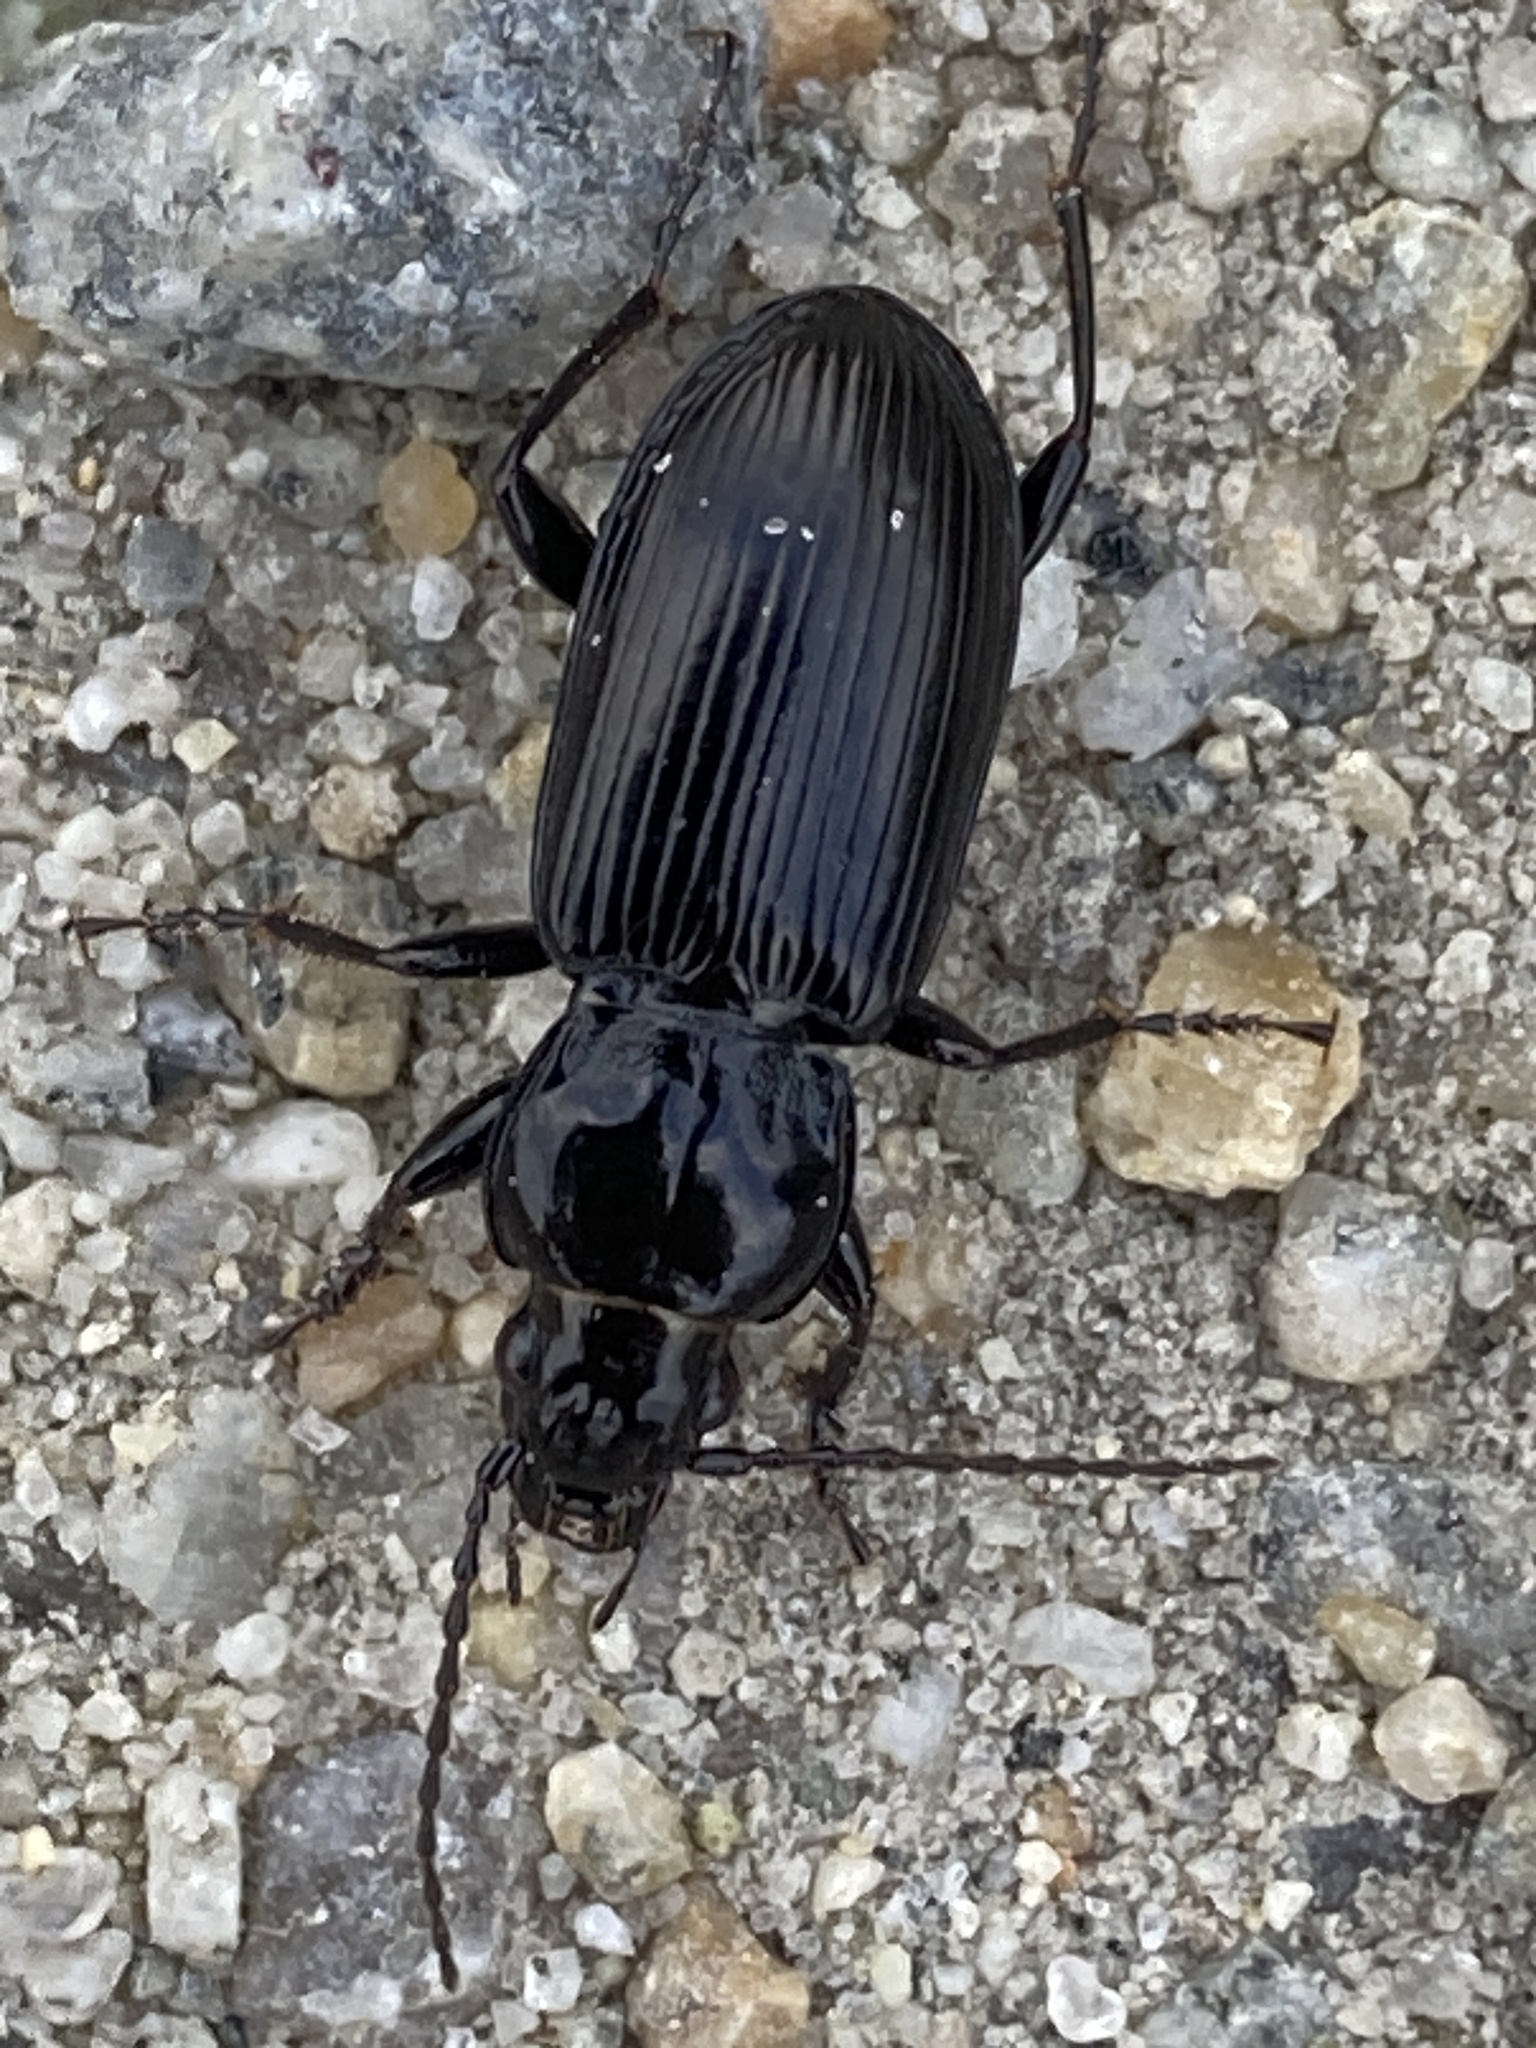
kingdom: Animalia
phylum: Arthropoda
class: Insecta
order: Coleoptera
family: Carabidae
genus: Pterostichus
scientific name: Pterostichus melanarius
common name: European dark harp ground beetle
